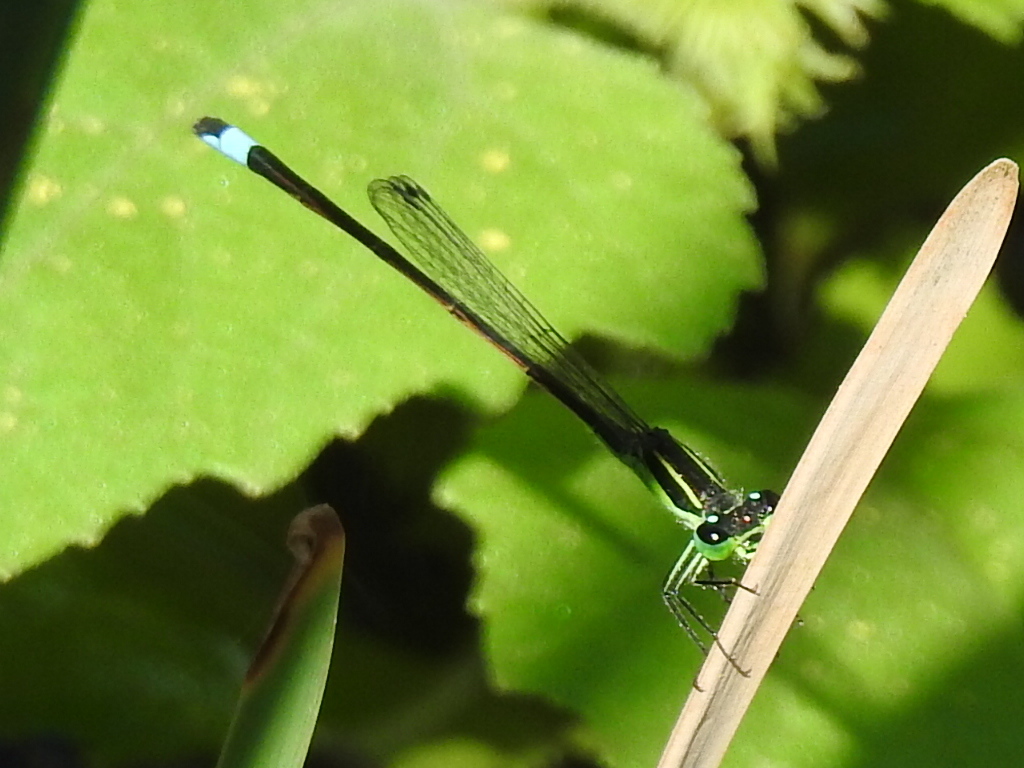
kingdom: Animalia
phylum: Arthropoda
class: Insecta
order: Odonata
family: Coenagrionidae
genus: Ischnura
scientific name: Ischnura ramburii
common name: Rambur's forktail
